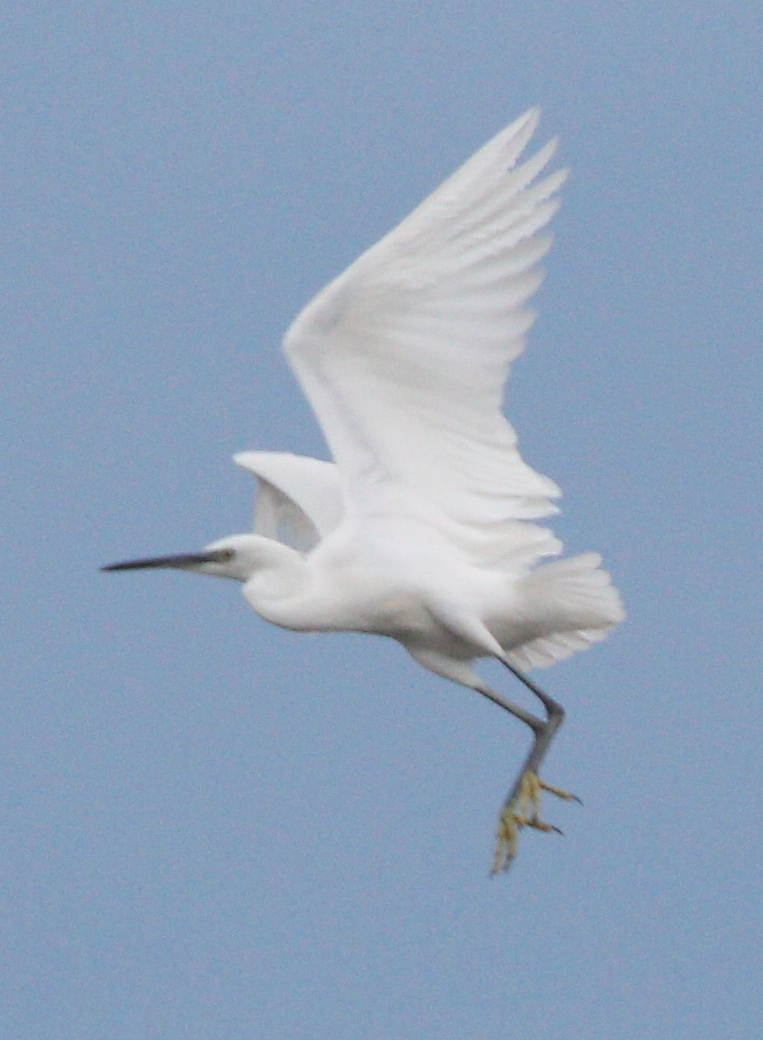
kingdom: Animalia
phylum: Chordata
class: Aves
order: Pelecaniformes
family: Ardeidae
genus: Egretta
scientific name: Egretta garzetta
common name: Little egret
